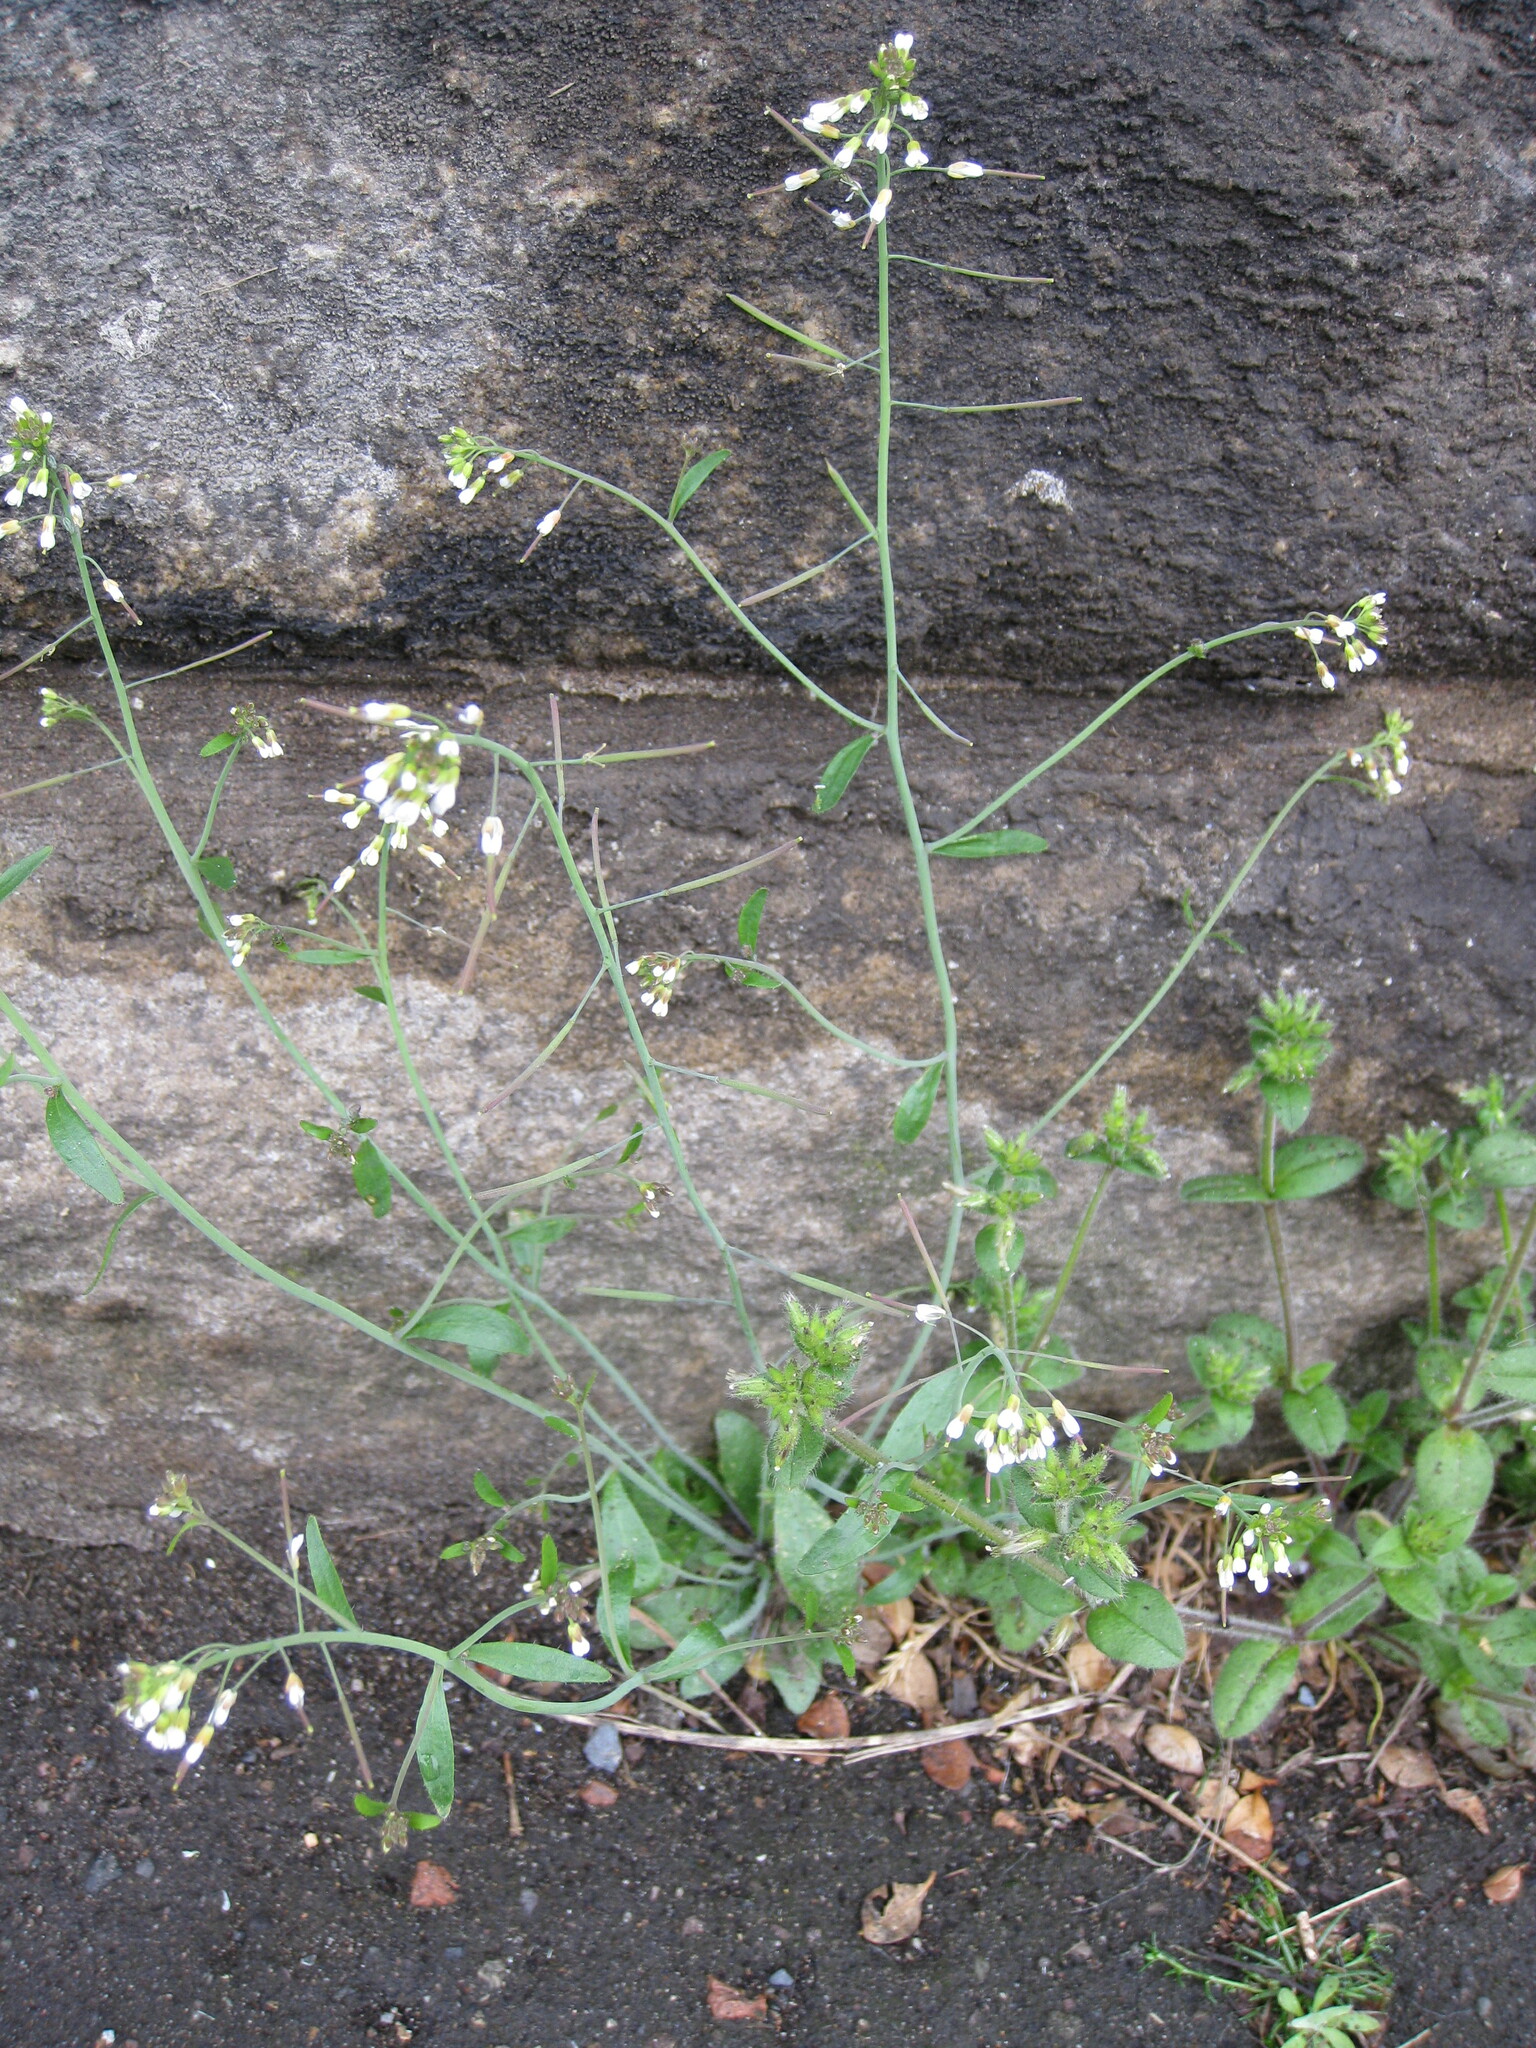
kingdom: Plantae
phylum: Tracheophyta
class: Magnoliopsida
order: Brassicales
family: Brassicaceae
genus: Arabidopsis
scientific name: Arabidopsis thaliana
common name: Thale cress
